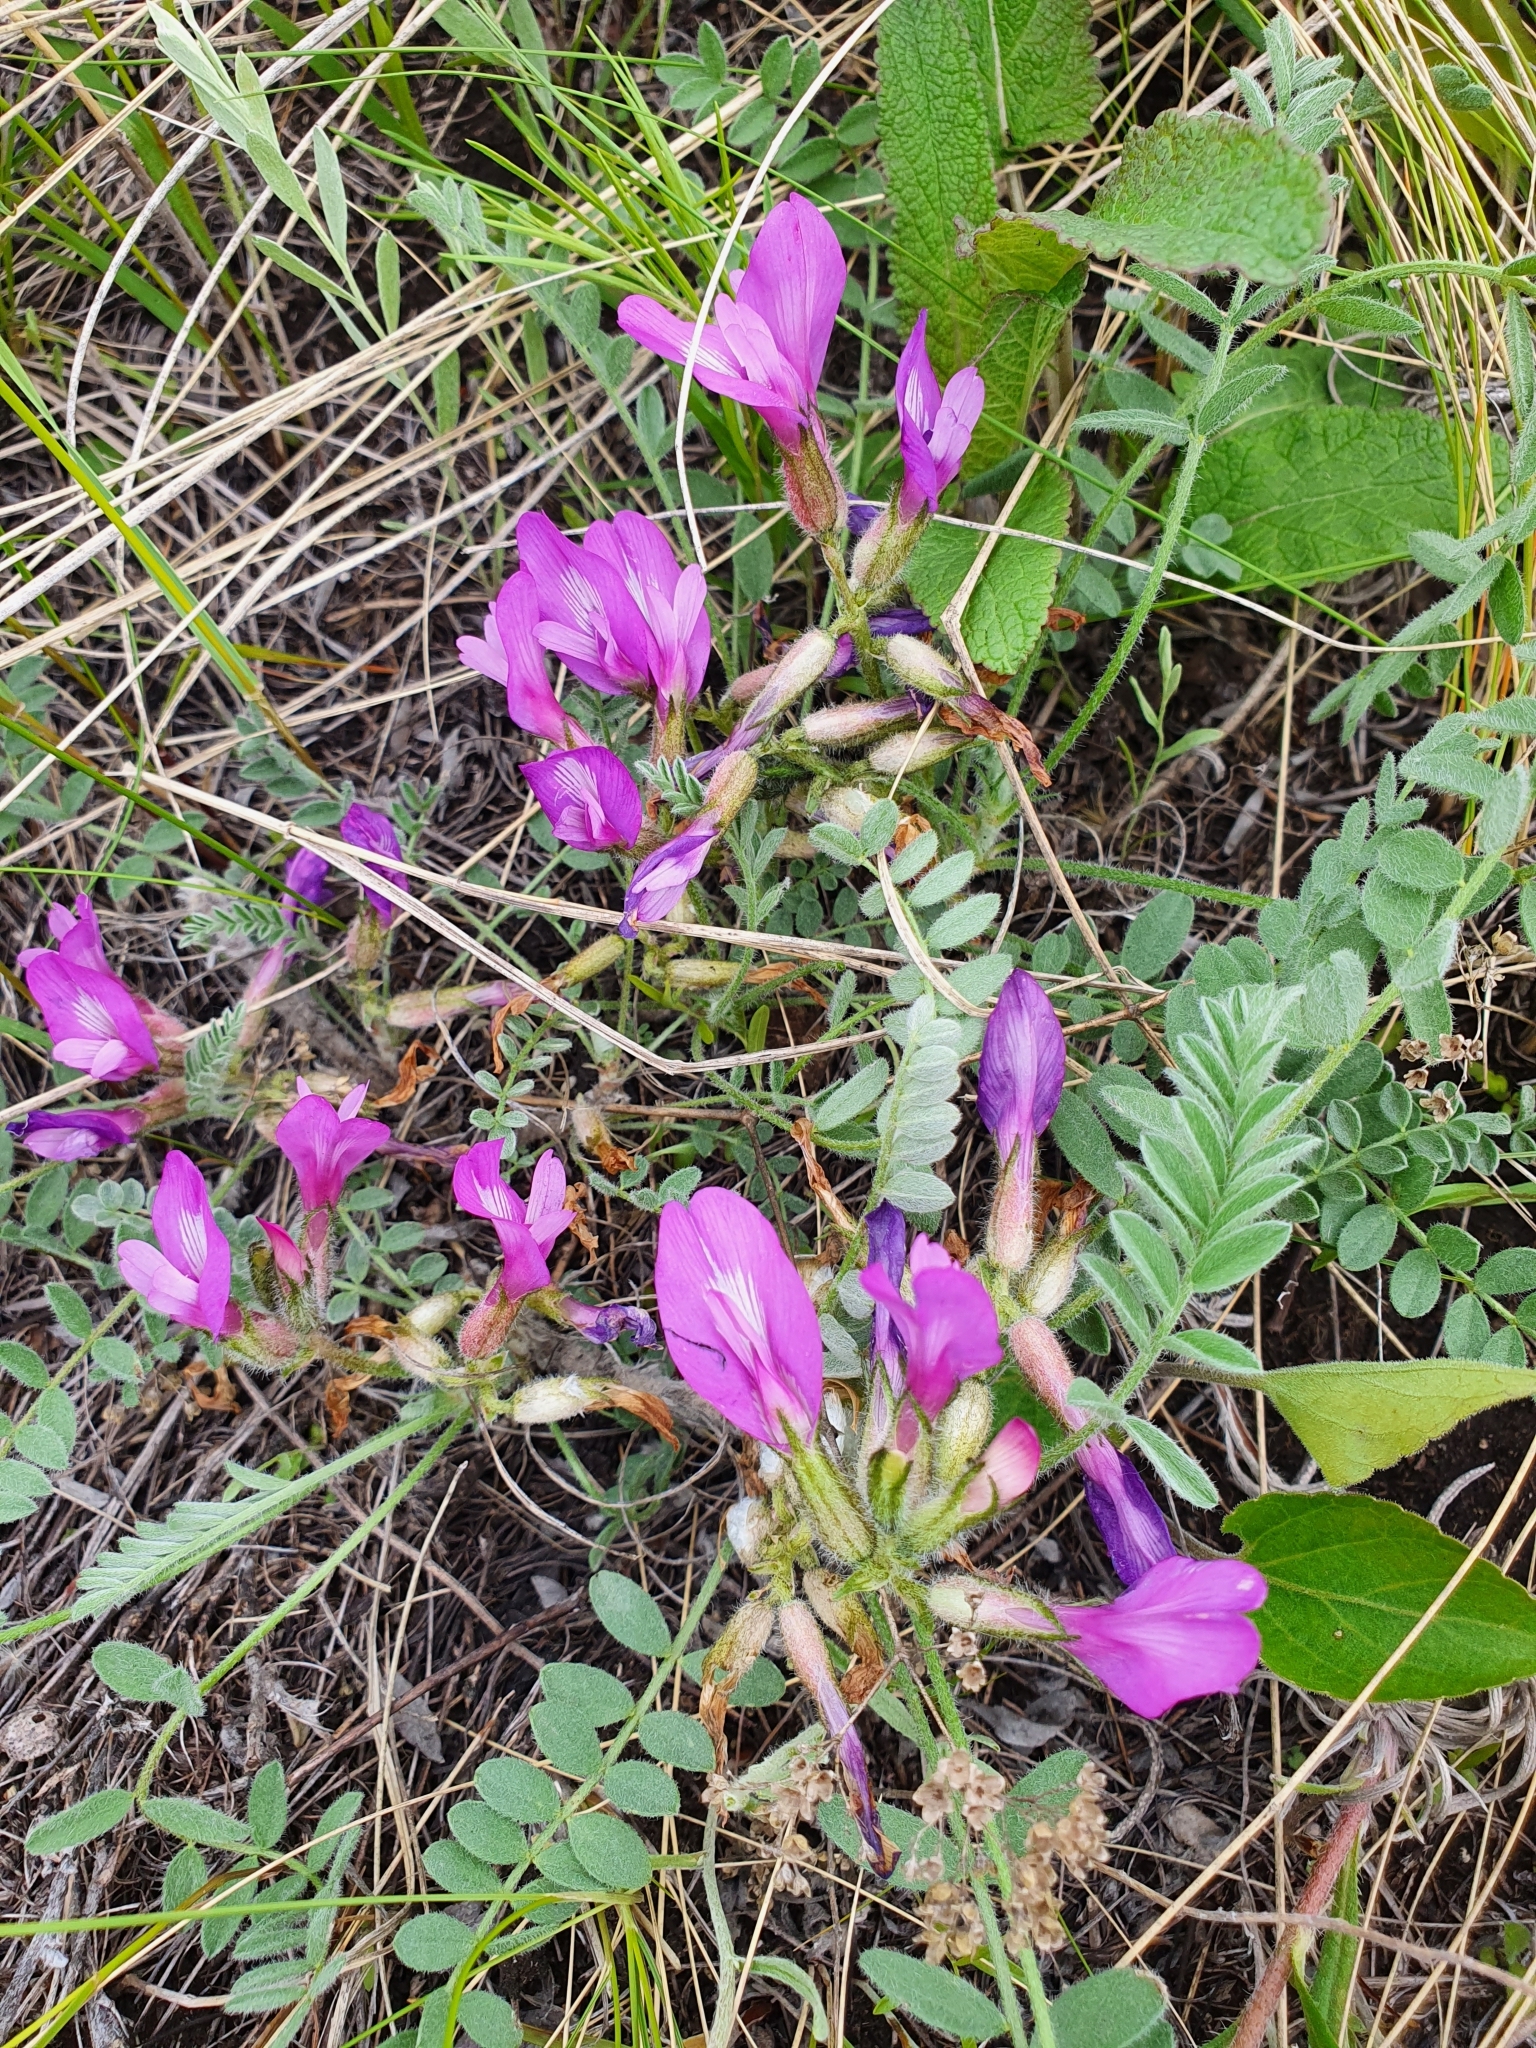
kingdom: Plantae
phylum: Tracheophyta
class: Magnoliopsida
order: Fabales
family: Fabaceae
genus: Astragalus
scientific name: Astragalus testiculatus
